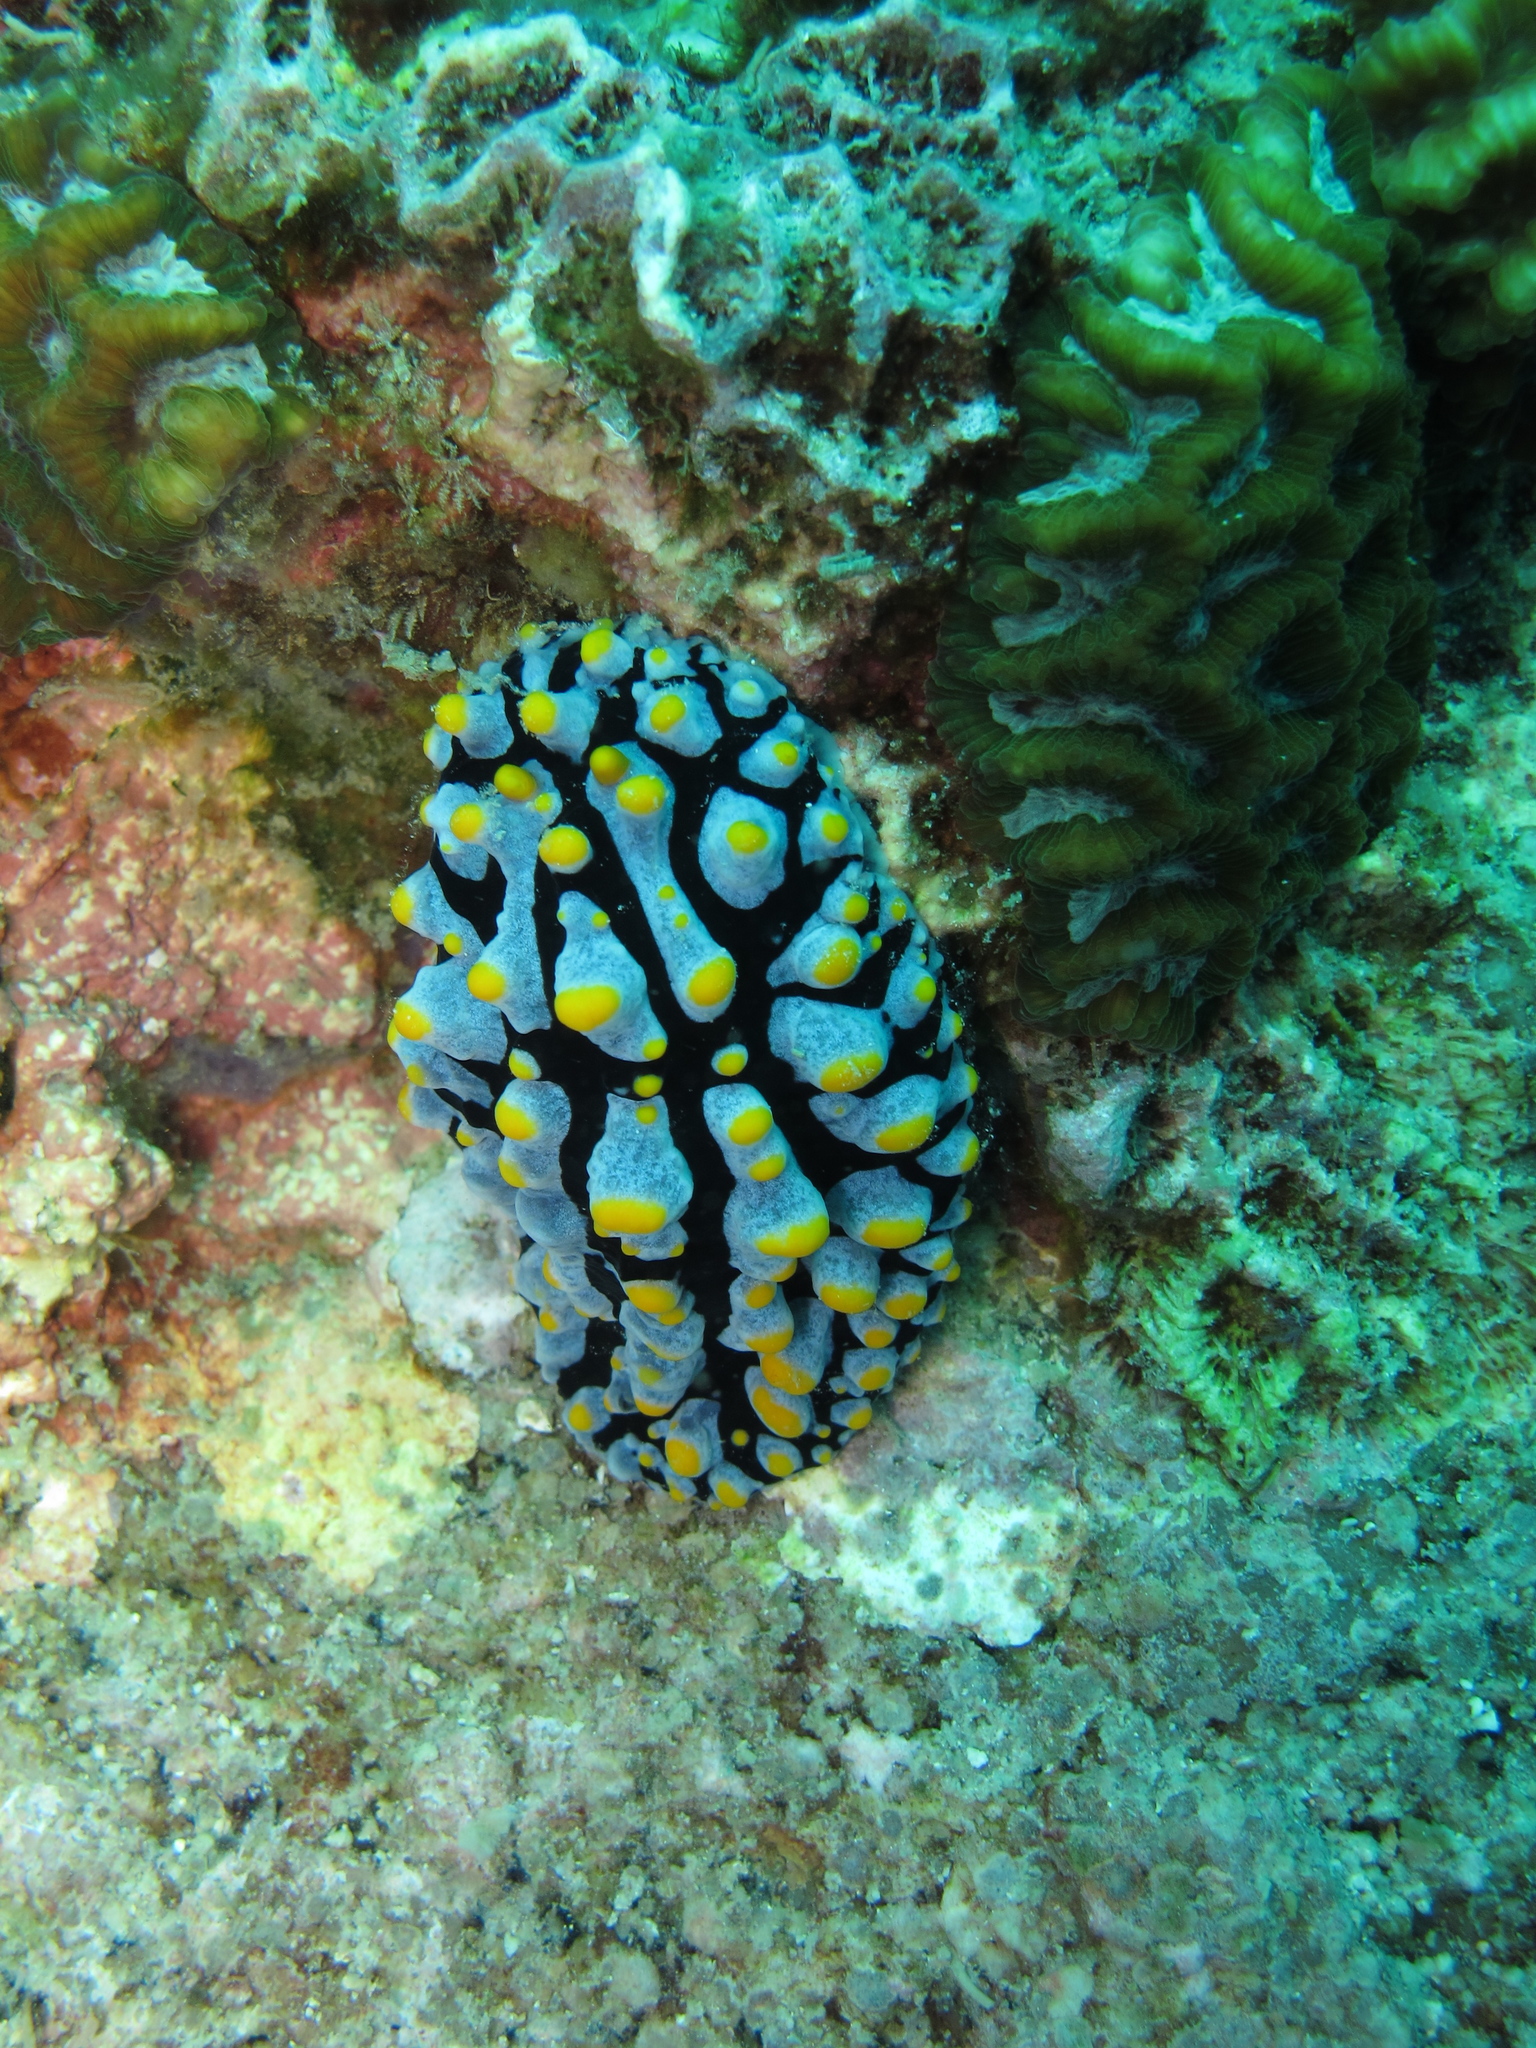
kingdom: Animalia
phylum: Mollusca
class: Gastropoda
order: Nudibranchia
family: Phyllidiidae
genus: Phyllidia
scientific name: Phyllidia varicosa
